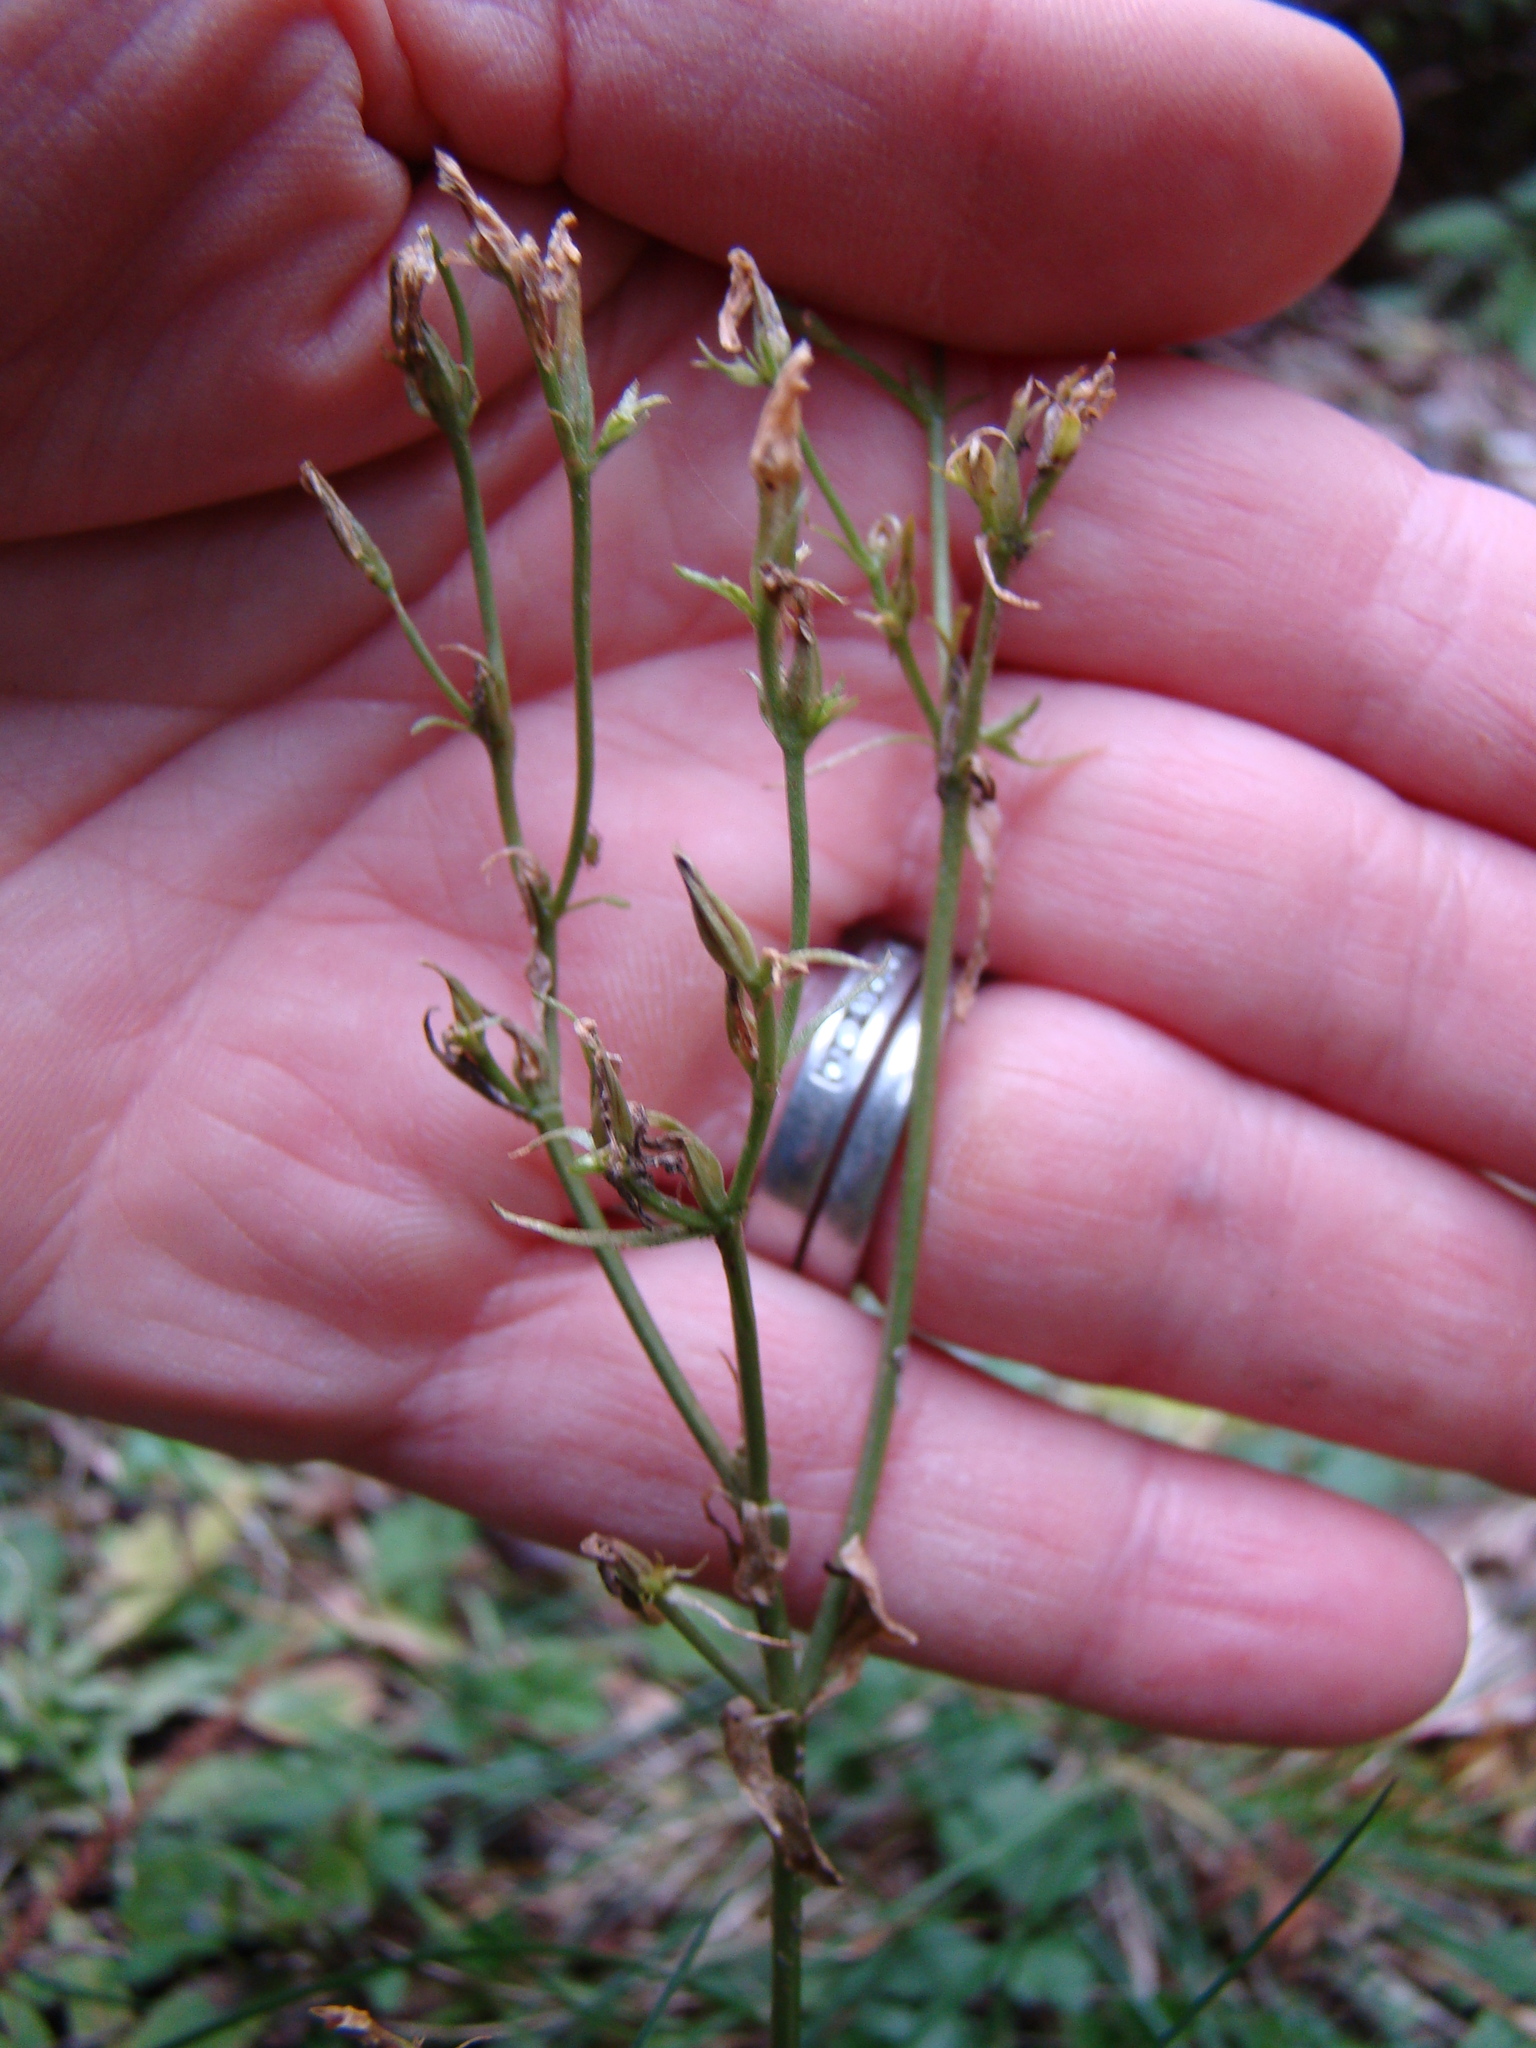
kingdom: Plantae
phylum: Tracheophyta
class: Magnoliopsida
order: Gentianales
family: Gentianaceae
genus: Centaurium
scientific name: Centaurium erythraea
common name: Common centaury
